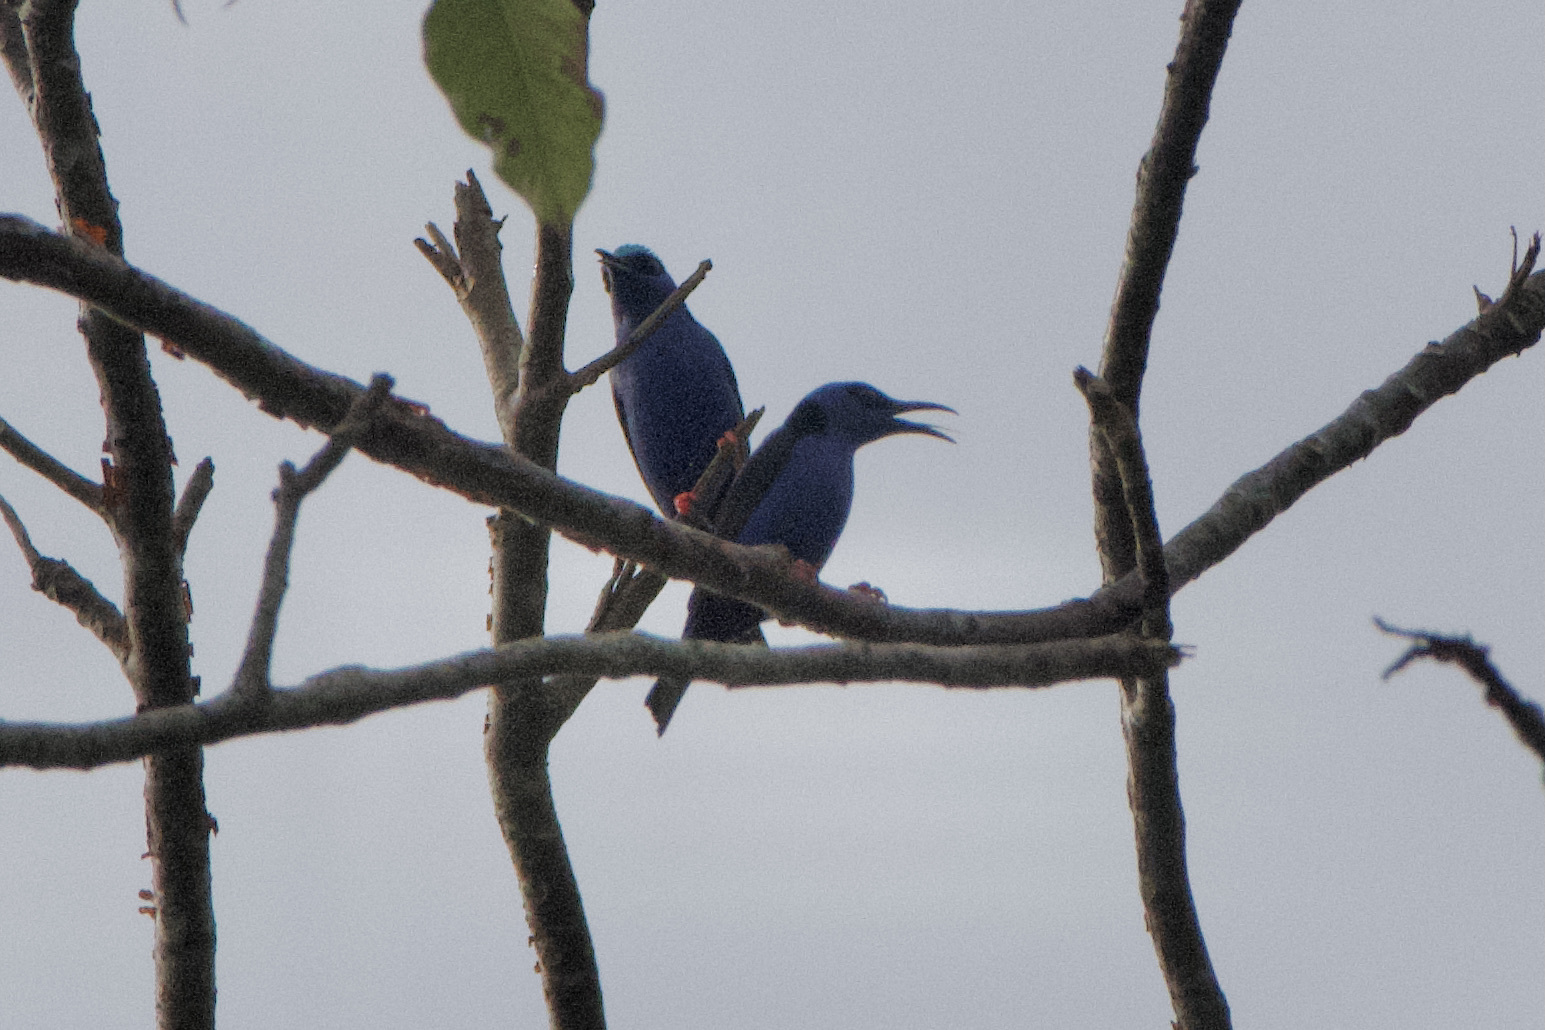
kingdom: Animalia
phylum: Chordata
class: Aves
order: Passeriformes
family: Thraupidae
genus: Cyanerpes
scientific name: Cyanerpes cyaneus
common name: Red-legged honeycreeper
